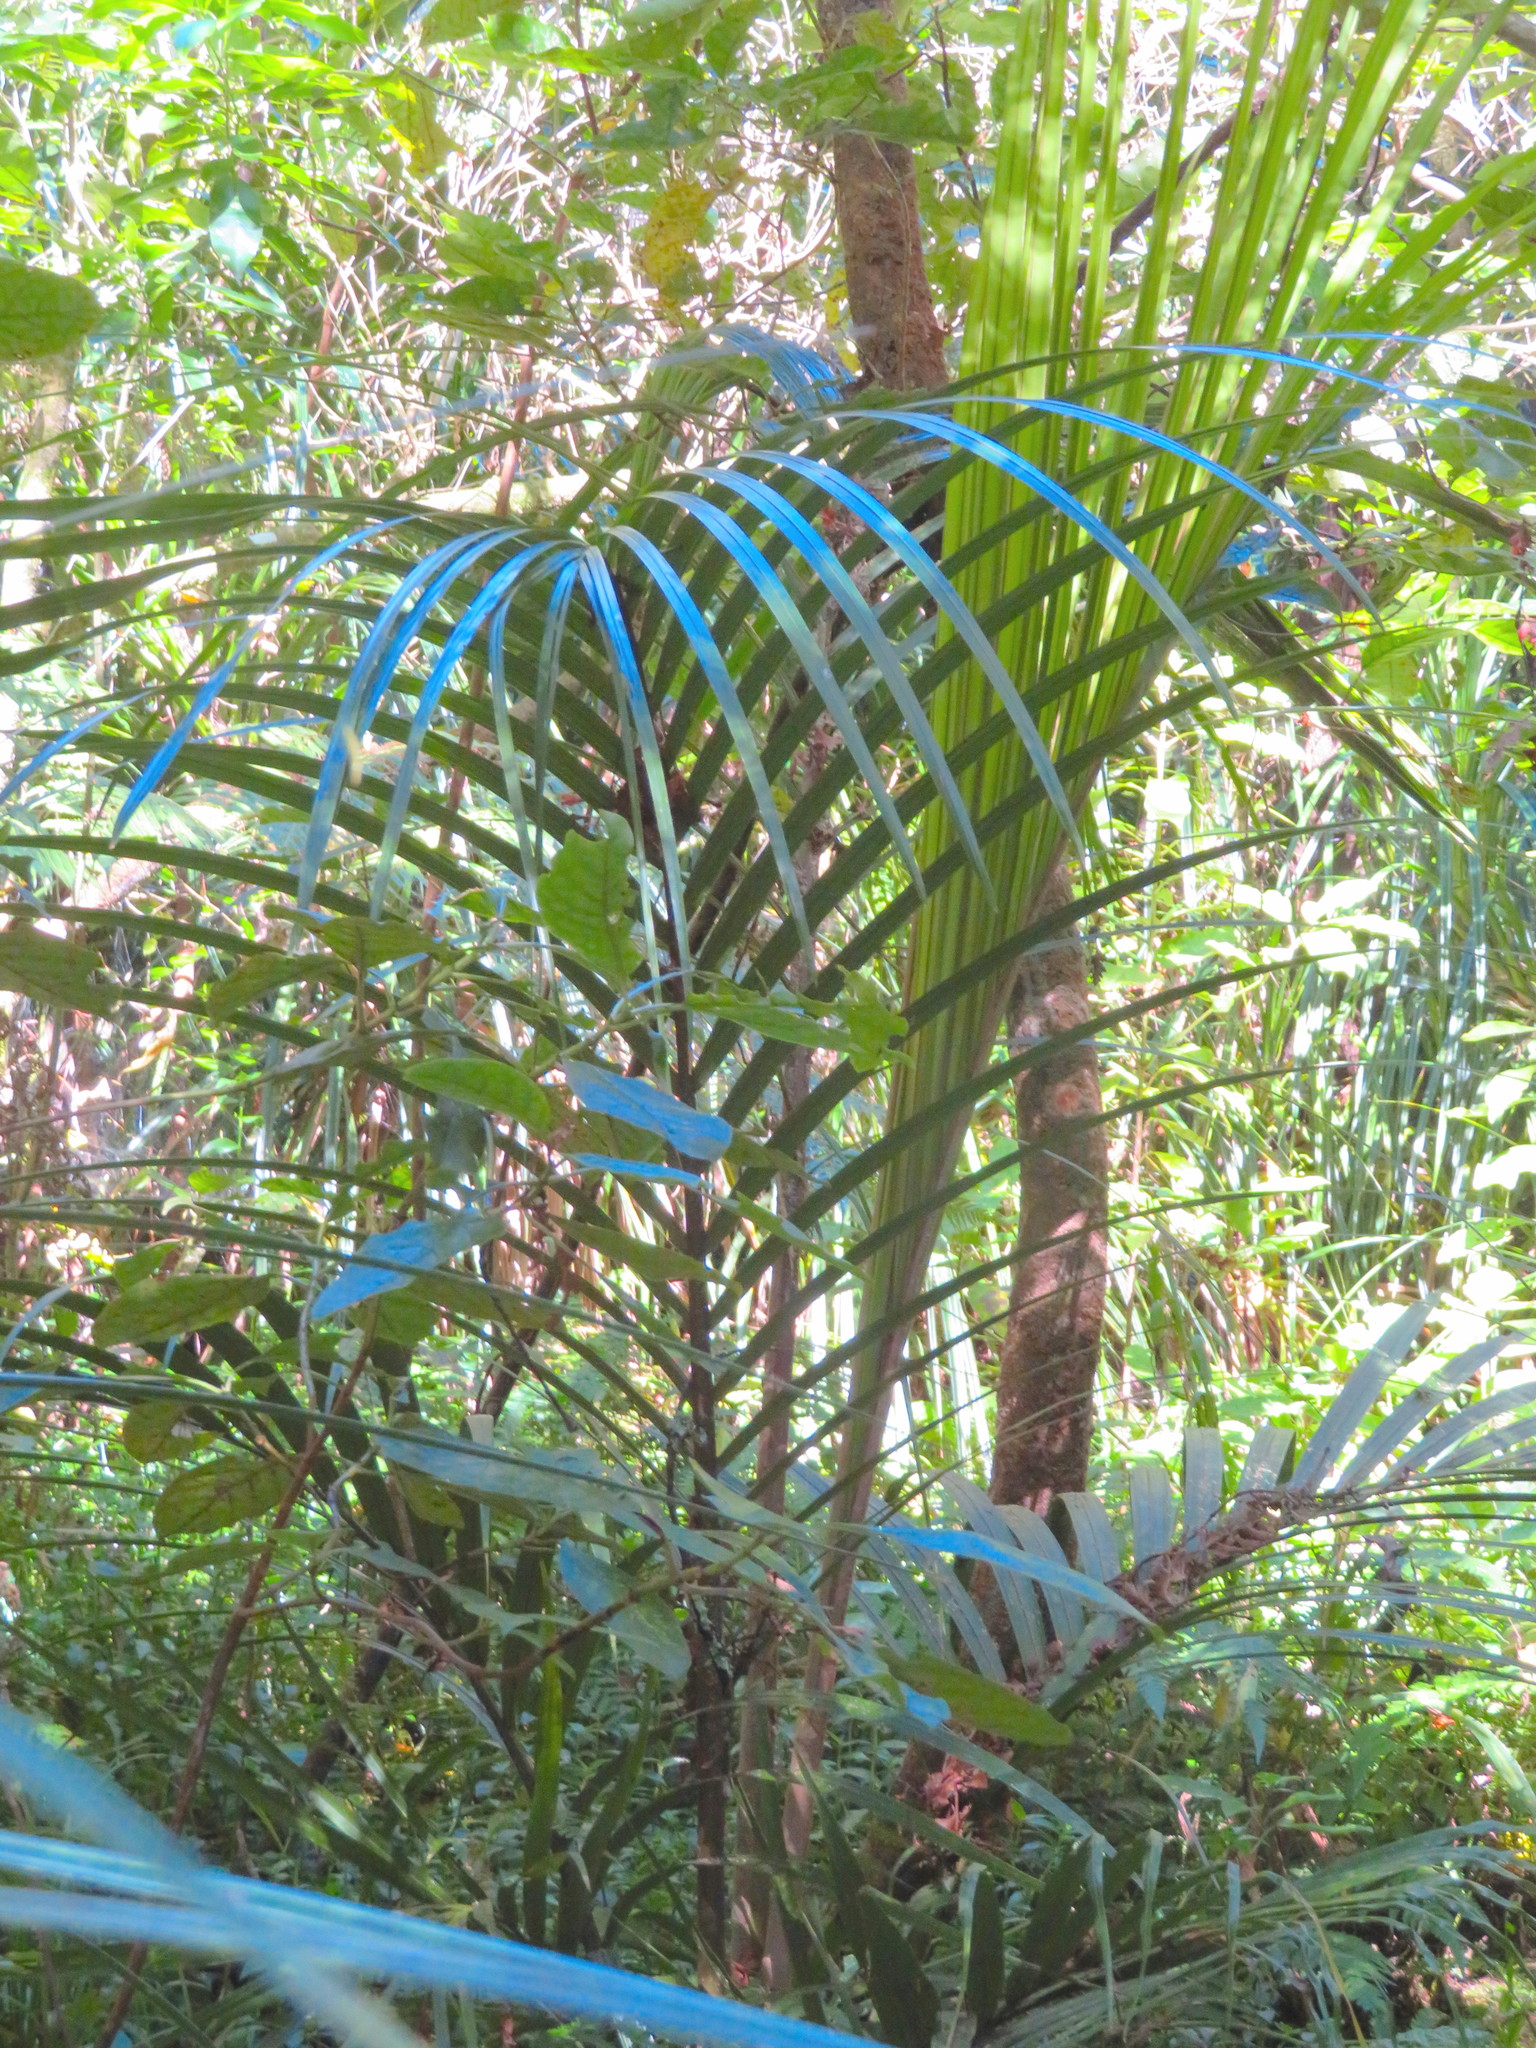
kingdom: Plantae
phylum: Tracheophyta
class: Liliopsida
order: Arecales
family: Arecaceae
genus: Rhopalostylis
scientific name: Rhopalostylis sapida
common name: Feather-duster palm
